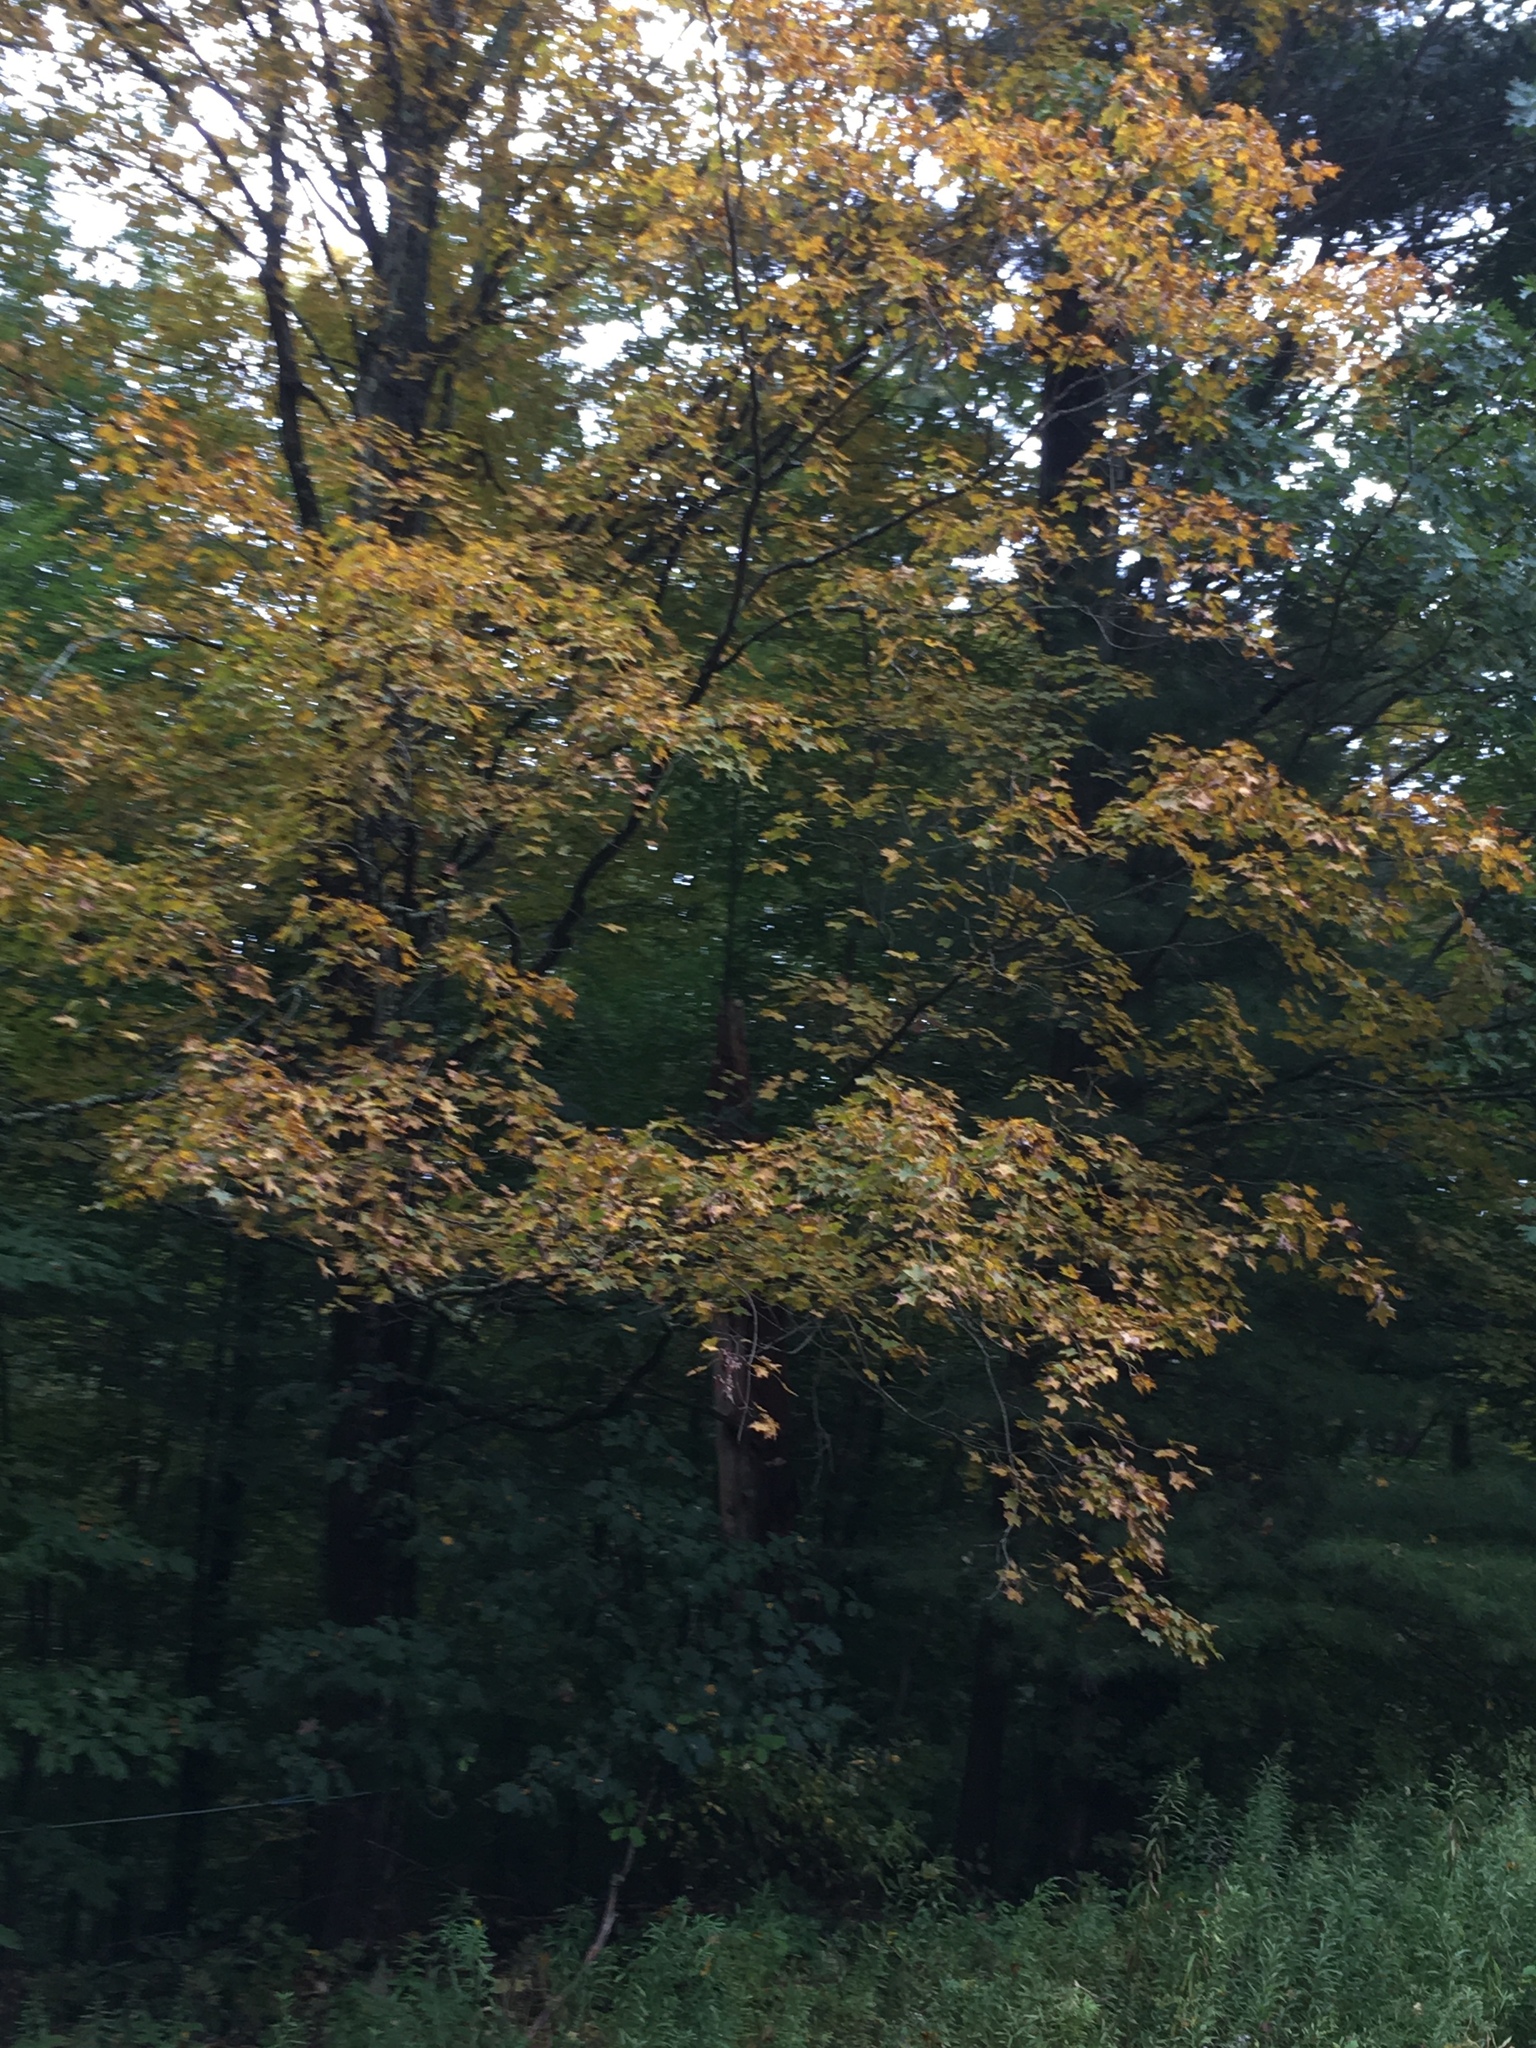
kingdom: Plantae
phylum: Tracheophyta
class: Magnoliopsida
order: Sapindales
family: Sapindaceae
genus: Acer
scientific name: Acer saccharum
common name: Sugar maple
